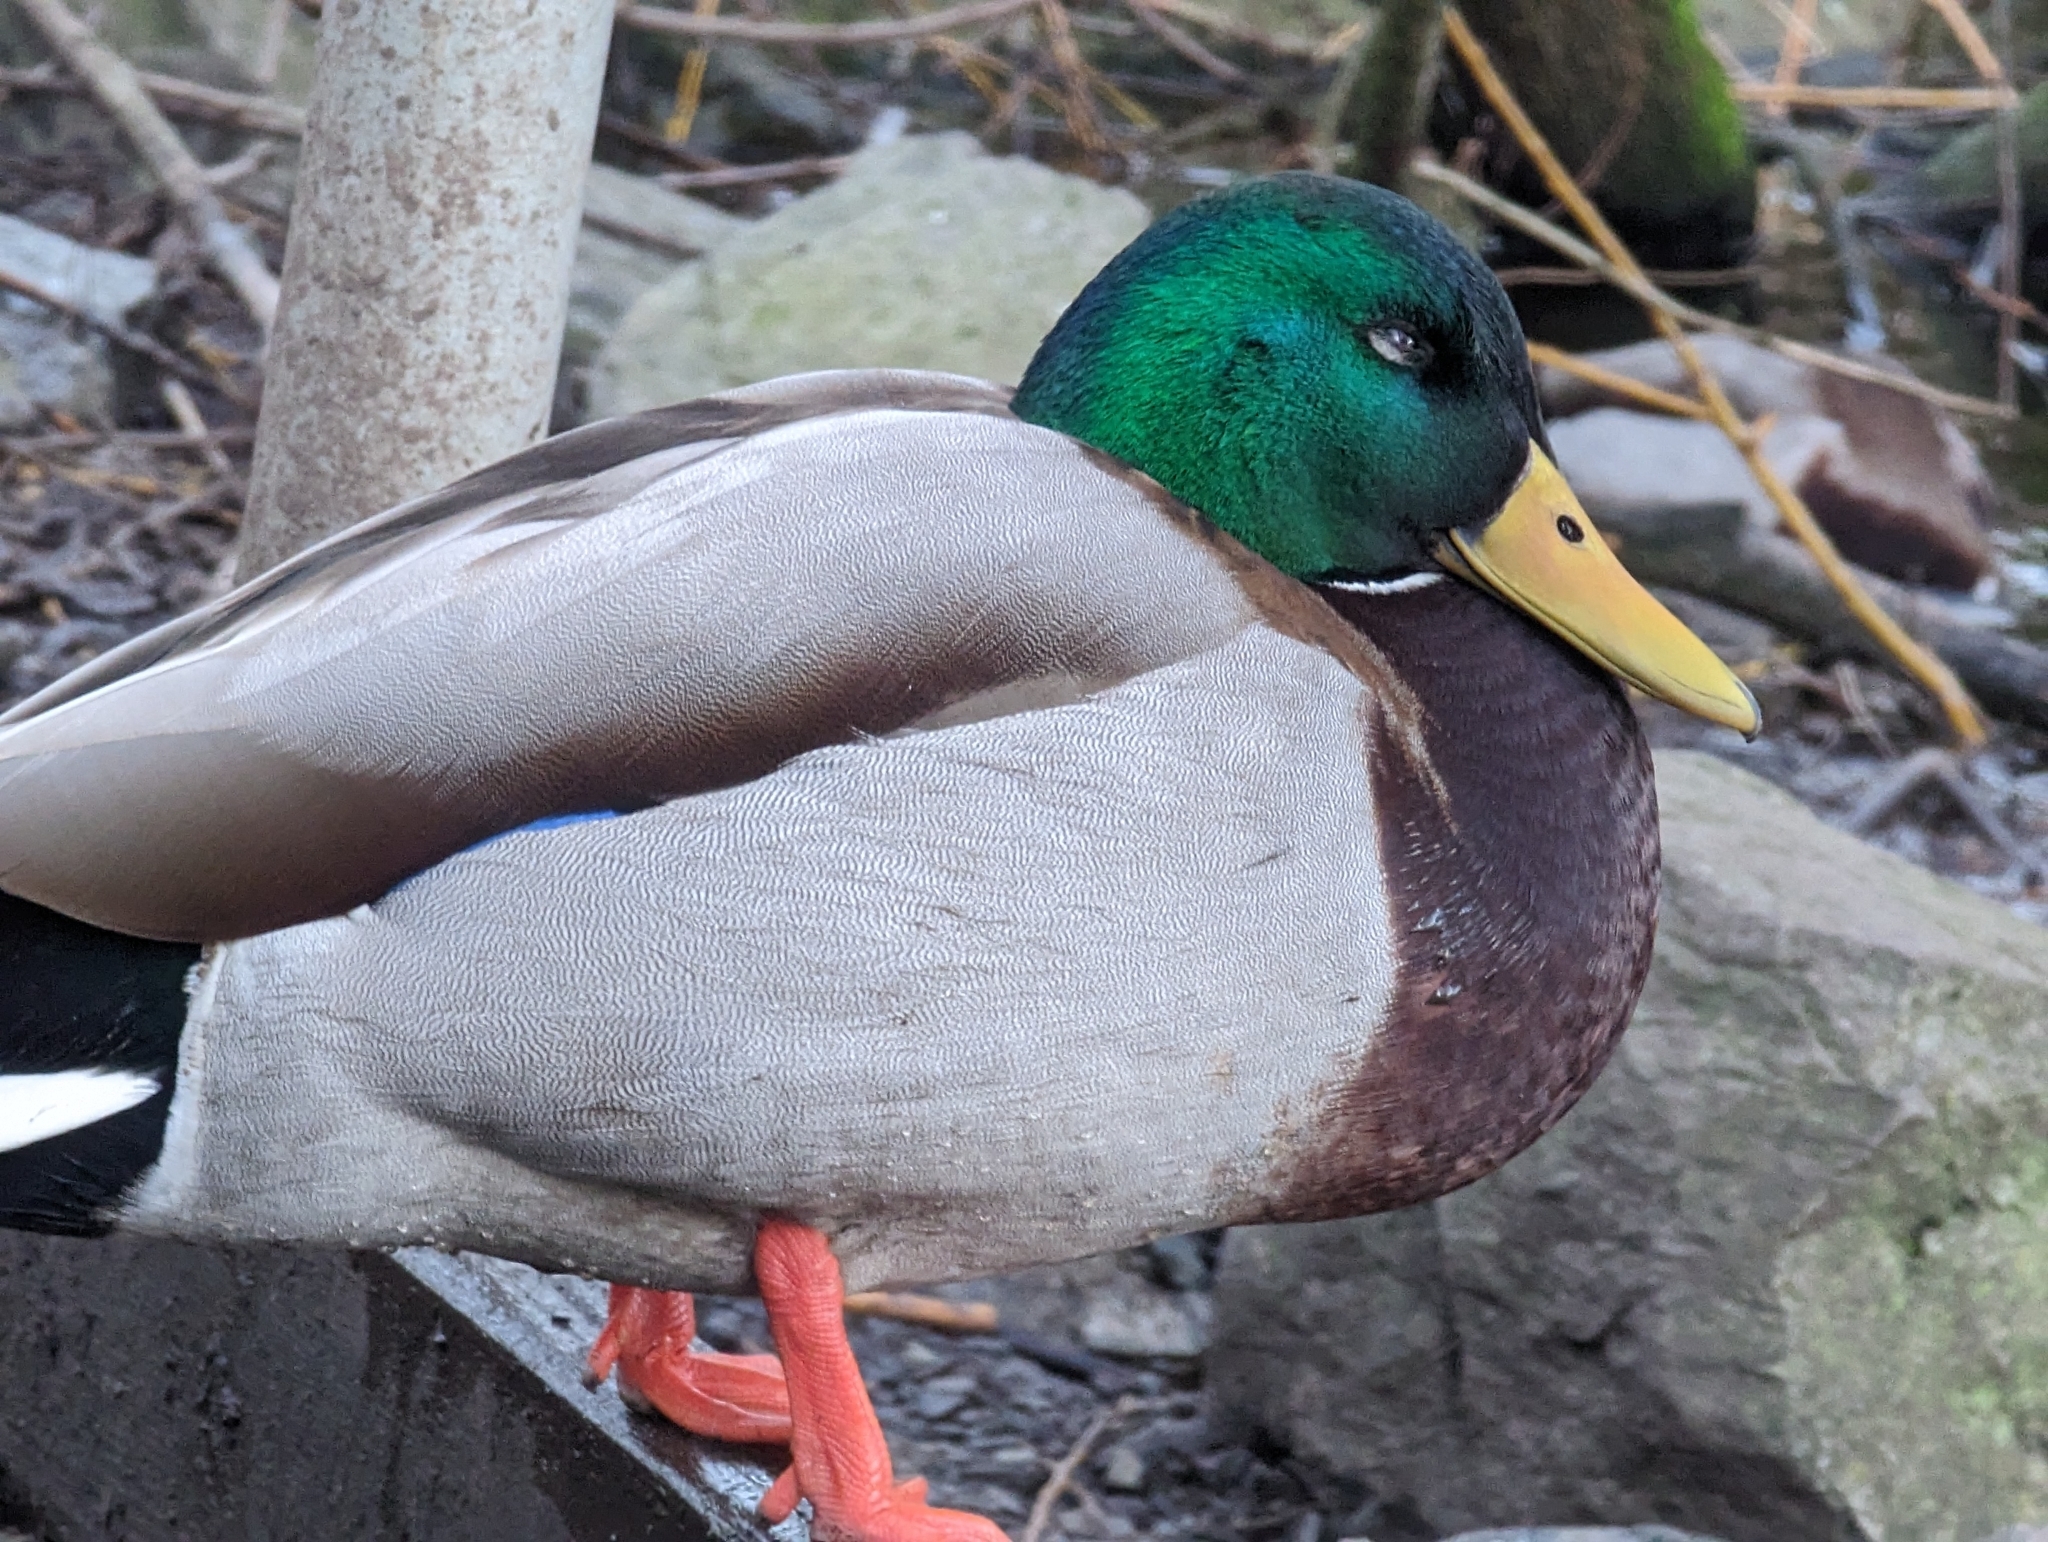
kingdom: Animalia
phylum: Chordata
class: Aves
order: Anseriformes
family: Anatidae
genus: Anas
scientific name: Anas platyrhynchos
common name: Mallard
